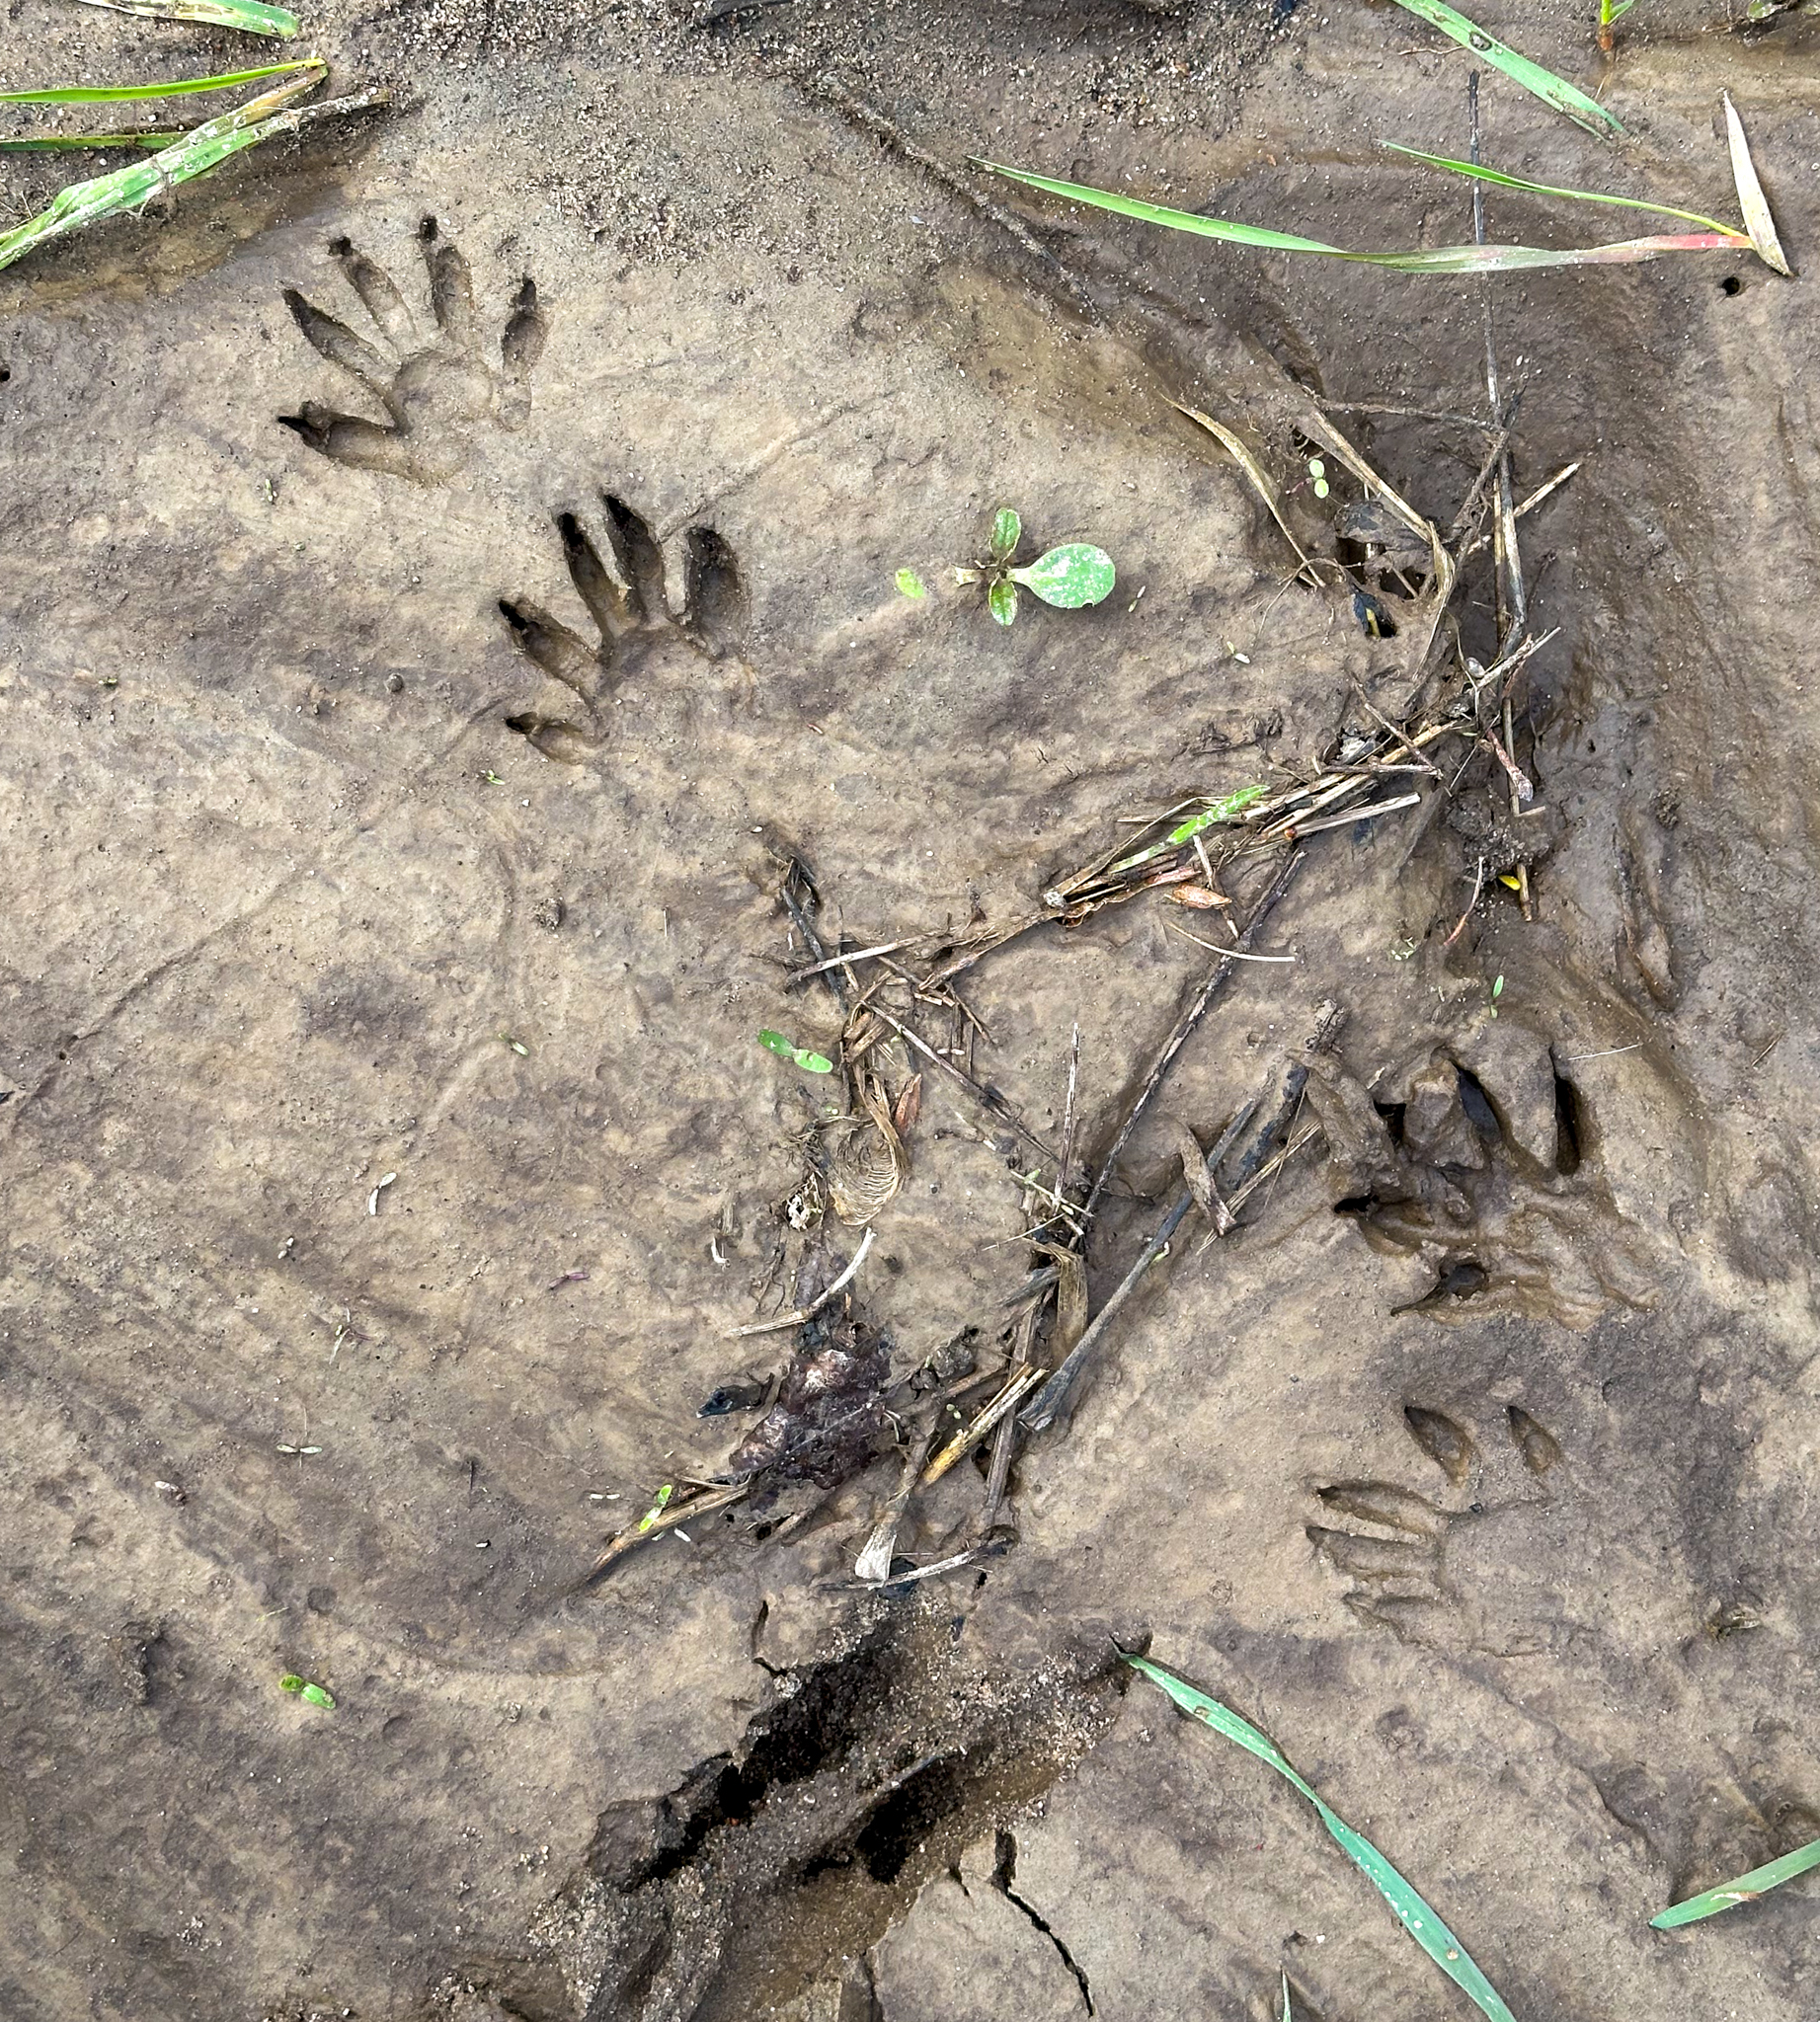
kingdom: Animalia
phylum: Chordata
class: Mammalia
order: Carnivora
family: Procyonidae
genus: Procyon
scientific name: Procyon lotor
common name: Raccoon
